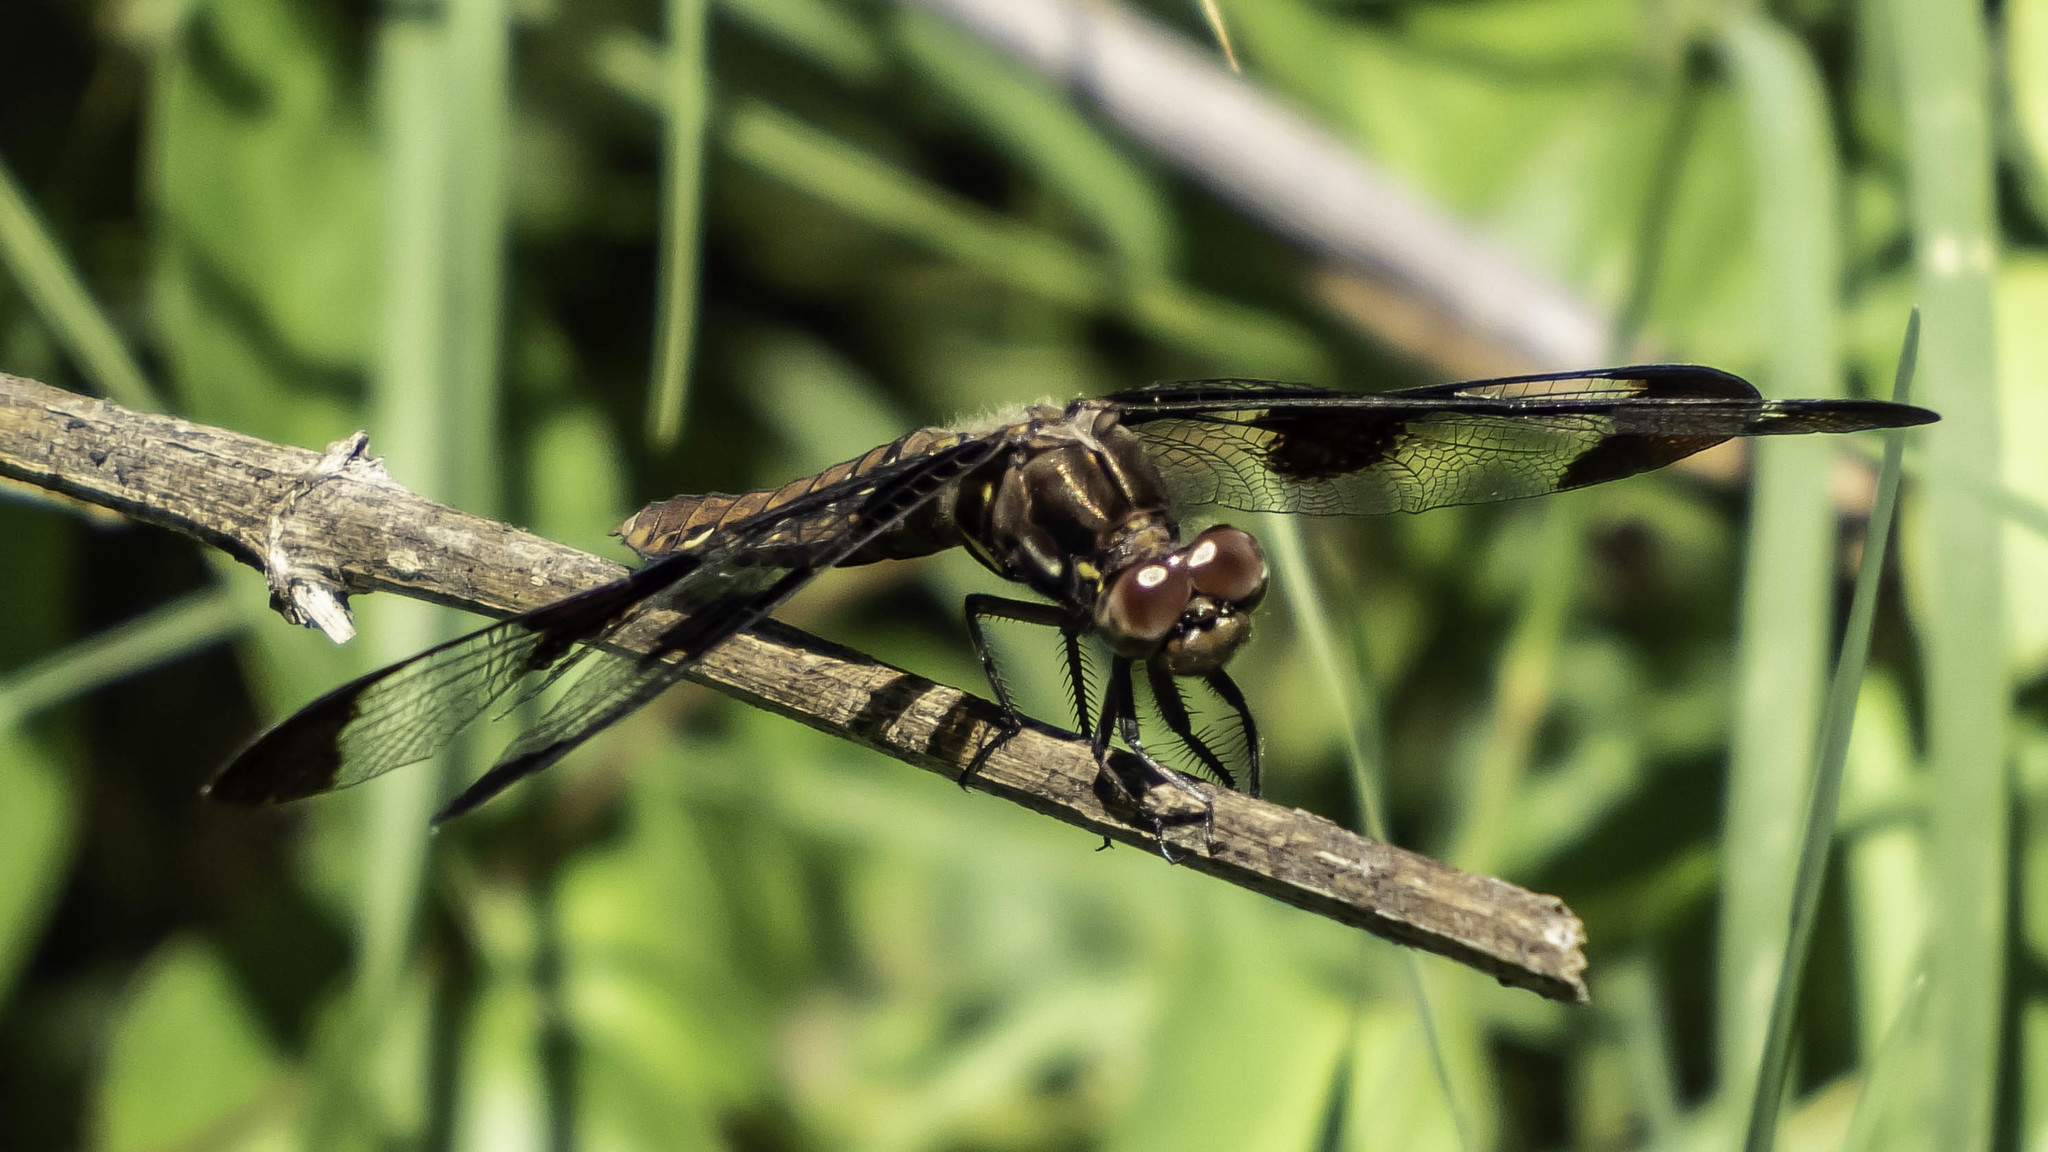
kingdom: Animalia
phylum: Arthropoda
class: Insecta
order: Odonata
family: Libellulidae
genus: Plathemis
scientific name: Plathemis lydia
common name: Common whitetail
